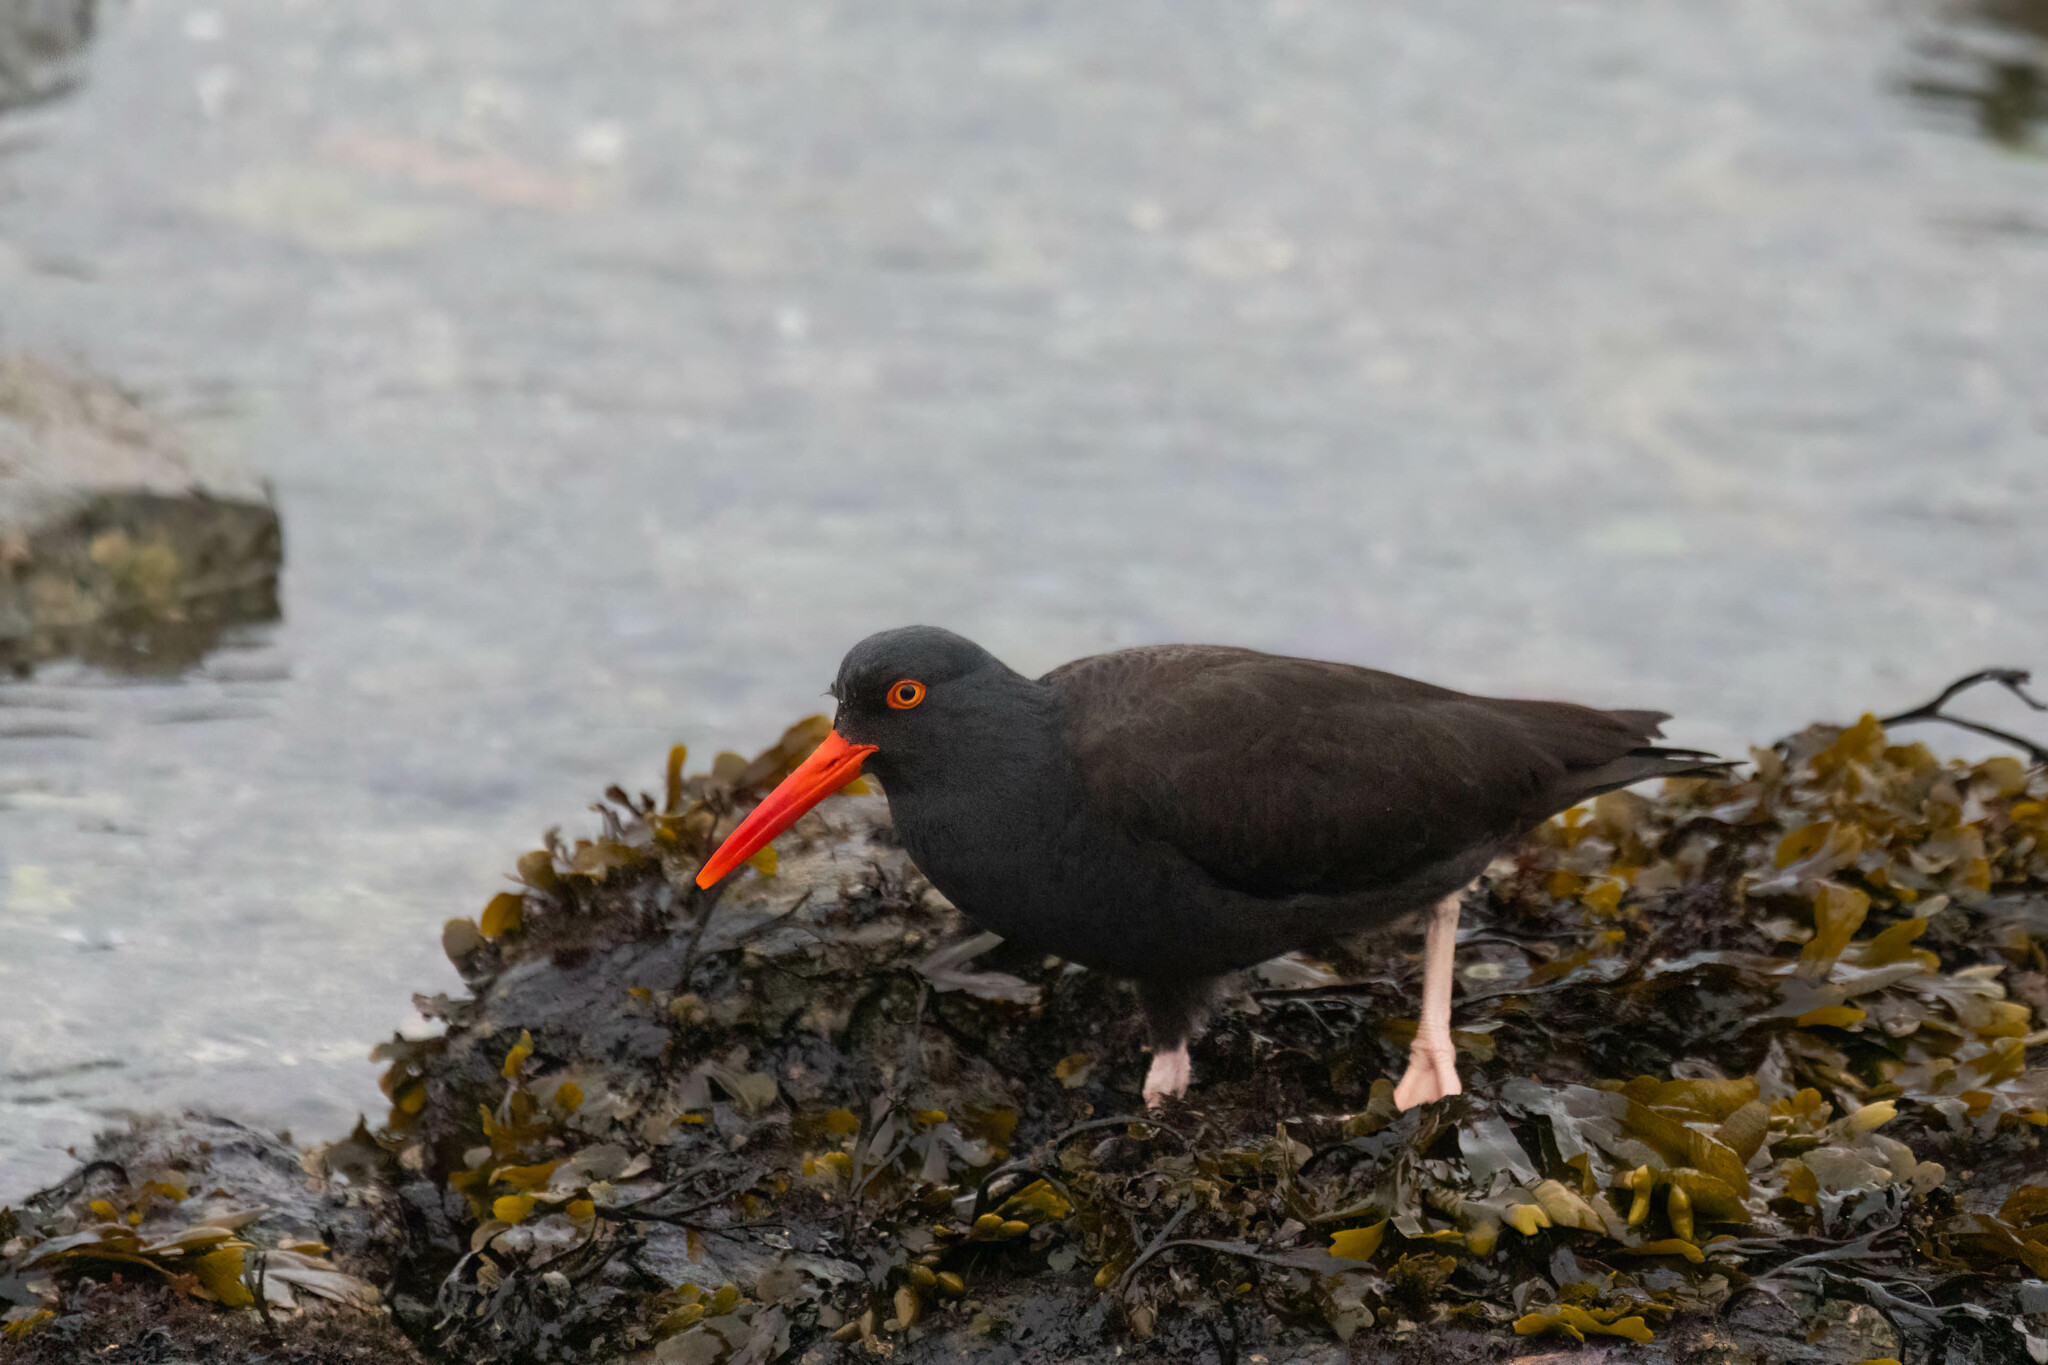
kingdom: Animalia
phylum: Chordata
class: Aves
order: Charadriiformes
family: Haematopodidae
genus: Haematopus
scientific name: Haematopus bachmani
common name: Black oystercatcher
